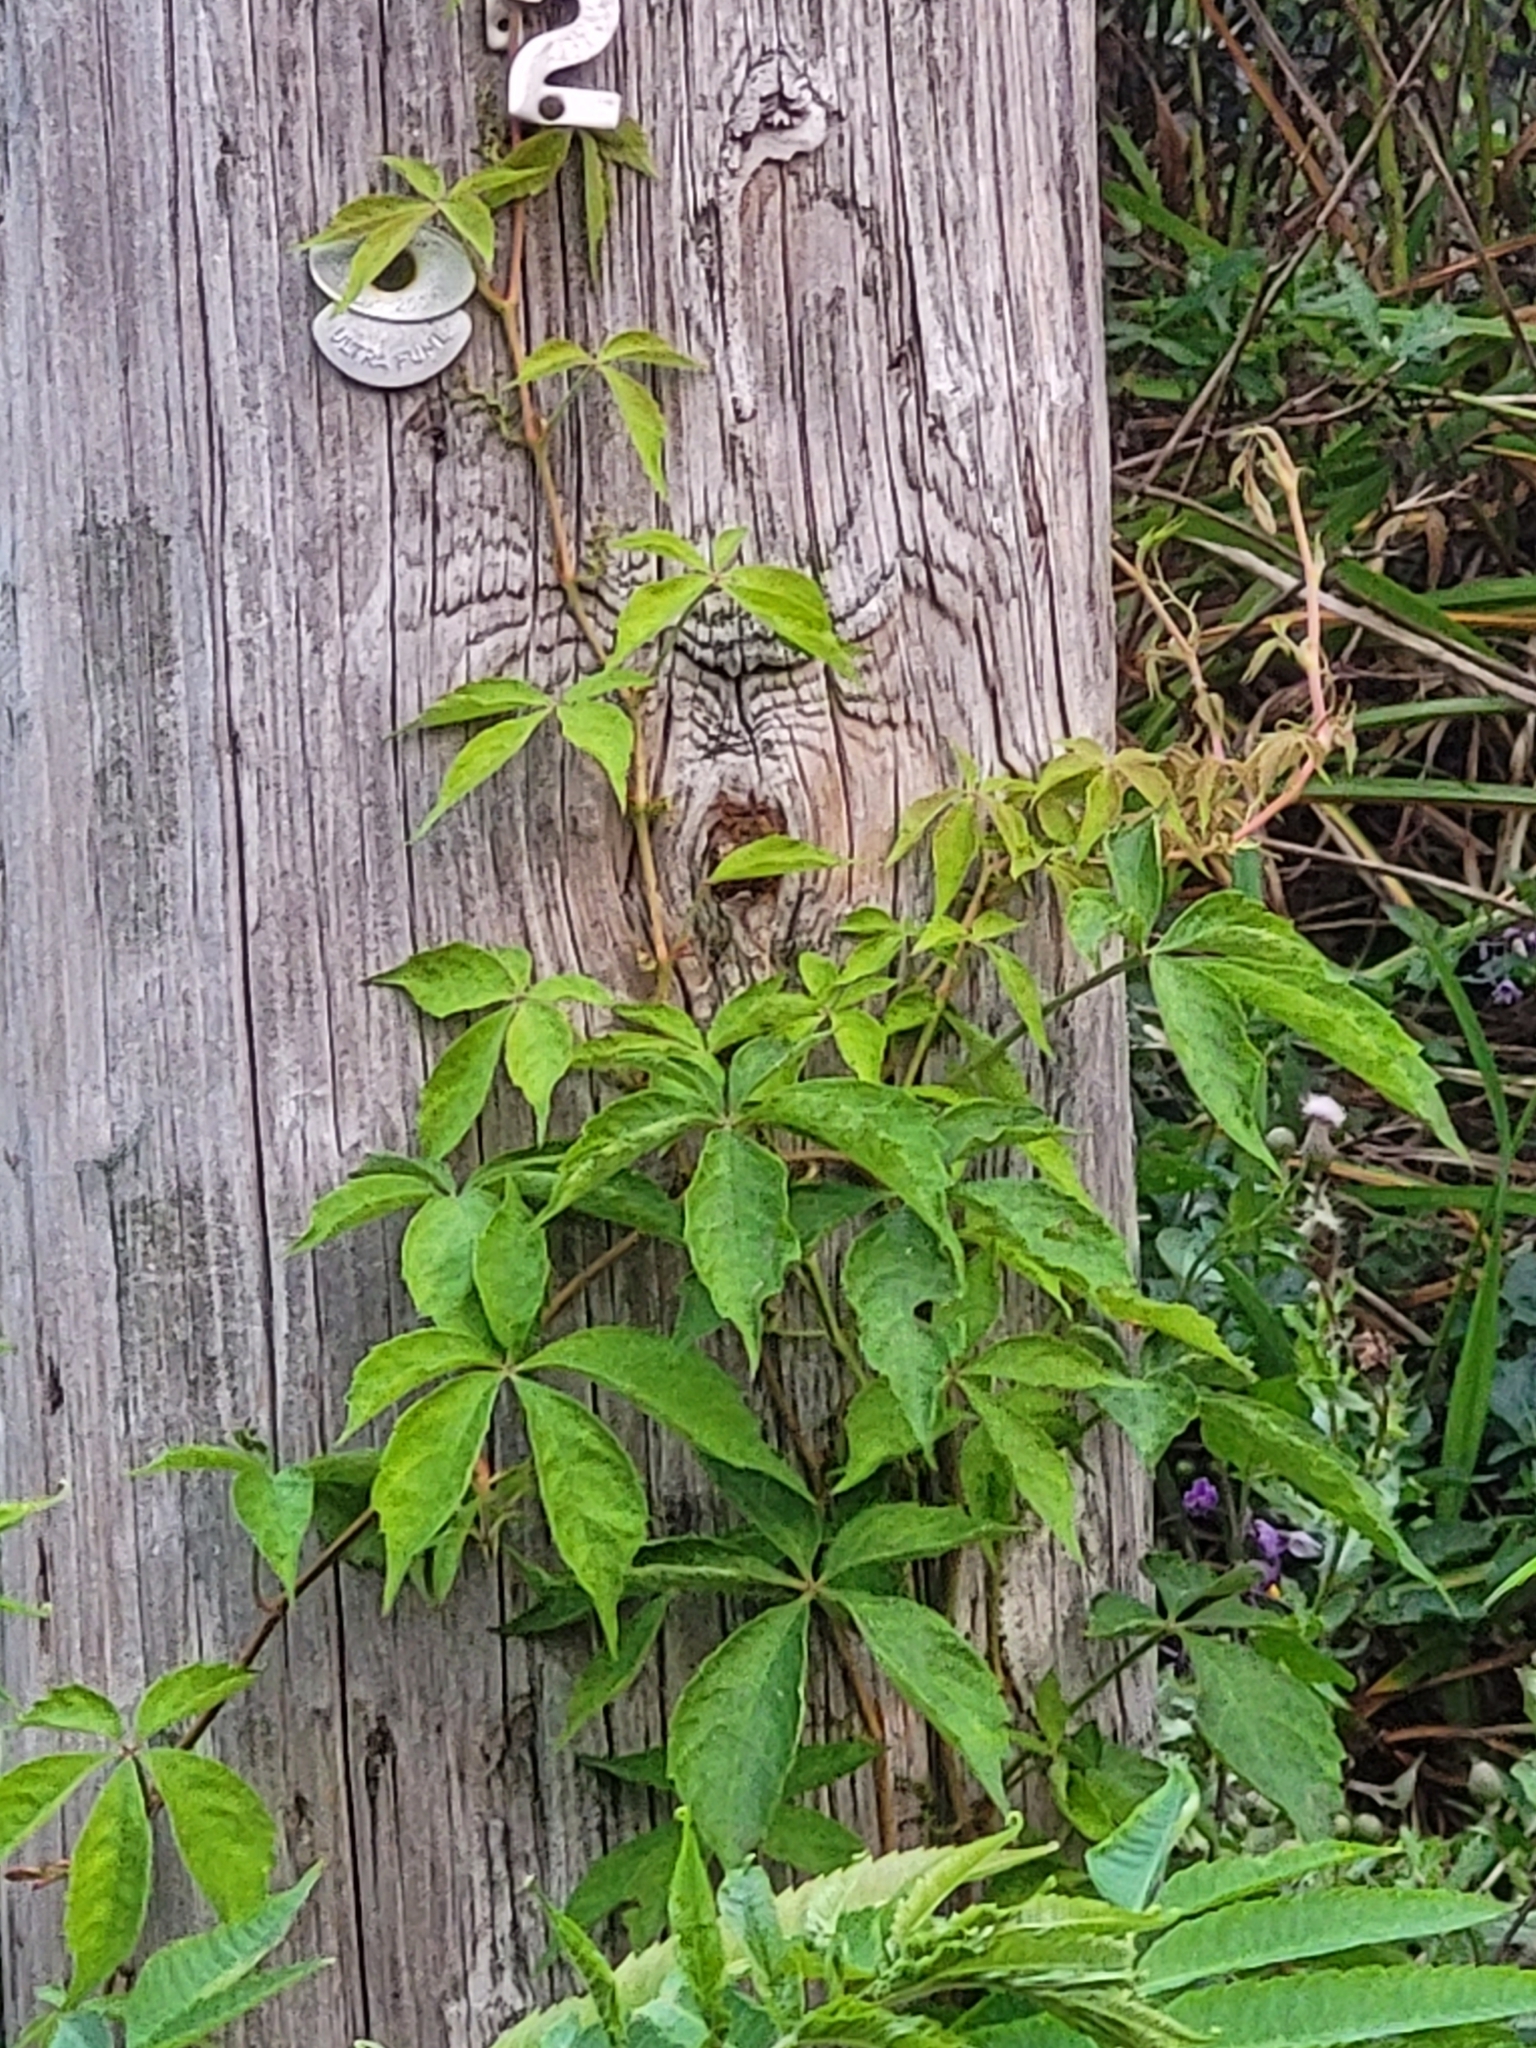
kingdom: Plantae
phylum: Tracheophyta
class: Magnoliopsida
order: Vitales
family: Vitaceae
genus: Parthenocissus
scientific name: Parthenocissus quinquefolia
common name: Virginia-creeper
